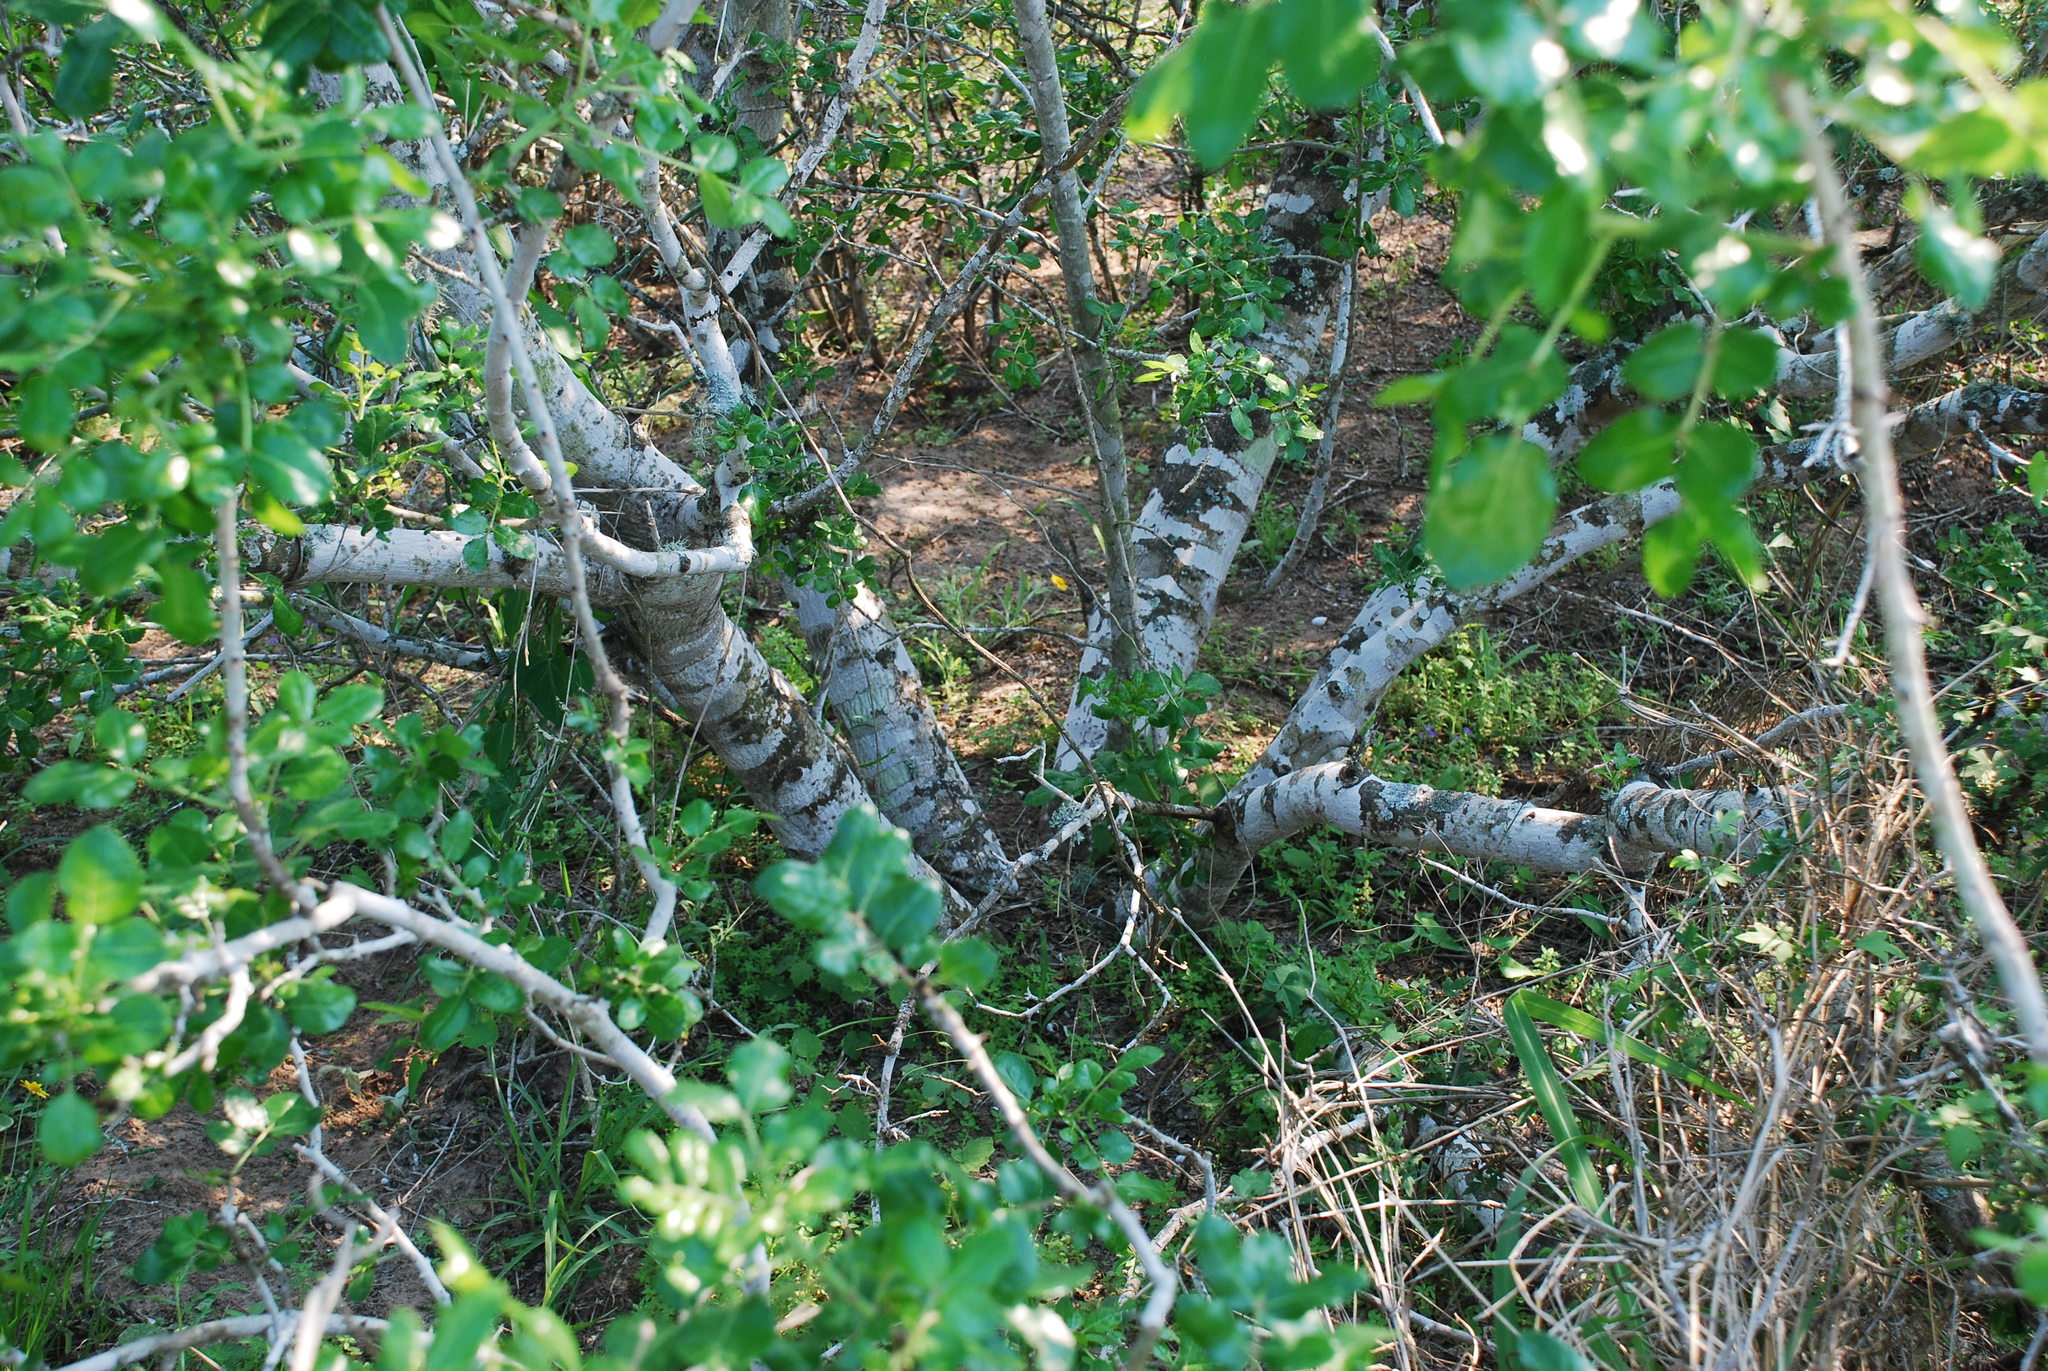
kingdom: Plantae
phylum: Tracheophyta
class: Magnoliopsida
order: Sapindales
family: Rutaceae
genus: Zanthoxylum
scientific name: Zanthoxylum clava-herculis
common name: Hercules'-club
